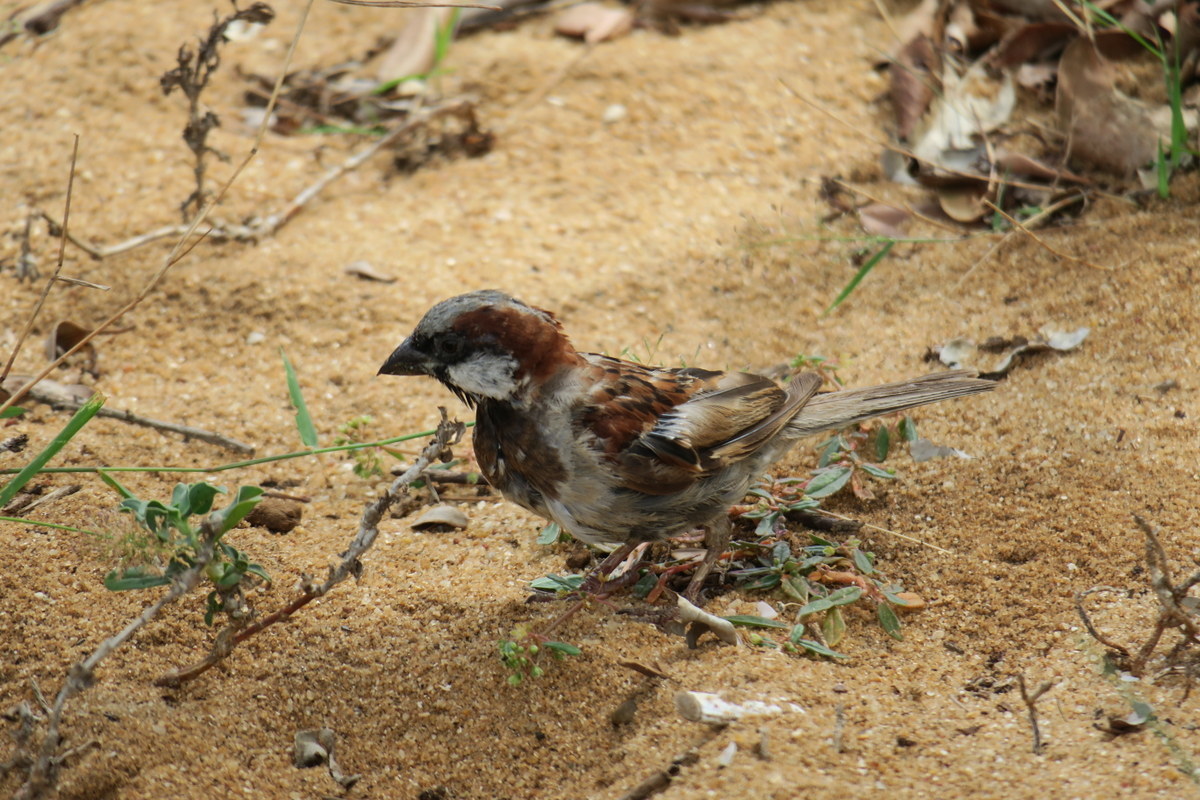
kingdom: Animalia
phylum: Chordata
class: Aves
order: Passeriformes
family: Passeridae
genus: Passer
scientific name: Passer domesticus
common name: House sparrow
